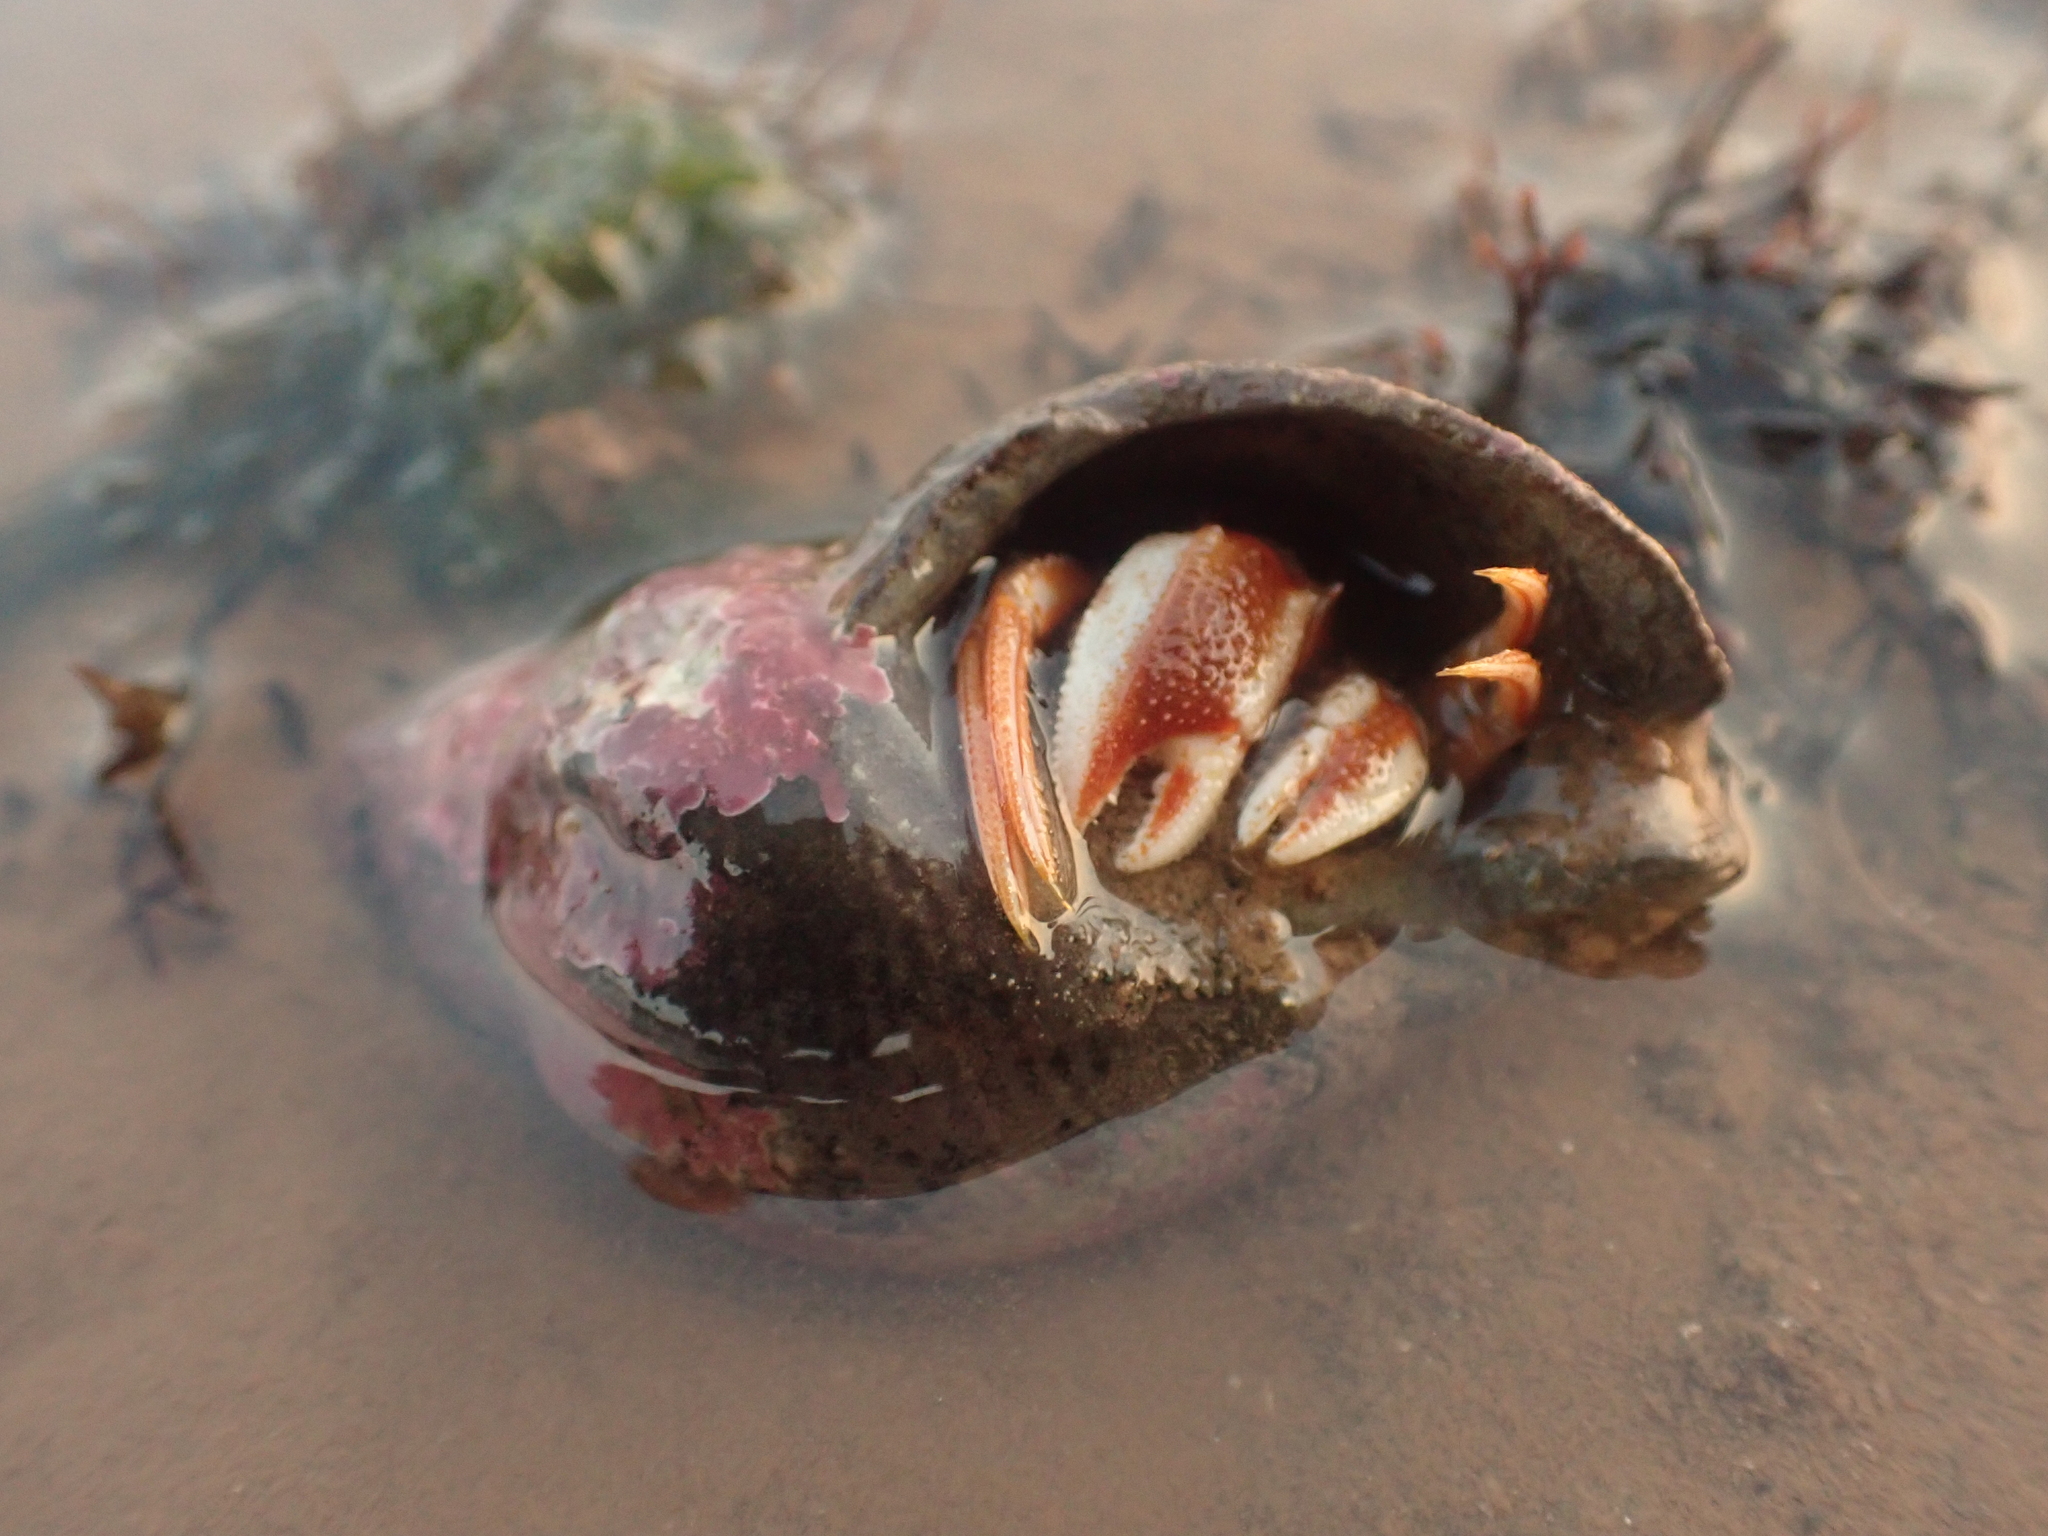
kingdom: Animalia
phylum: Arthropoda
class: Malacostraca
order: Decapoda
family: Paguridae
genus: Pagurus
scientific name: Pagurus acadianus
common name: Acadian hermit crab
